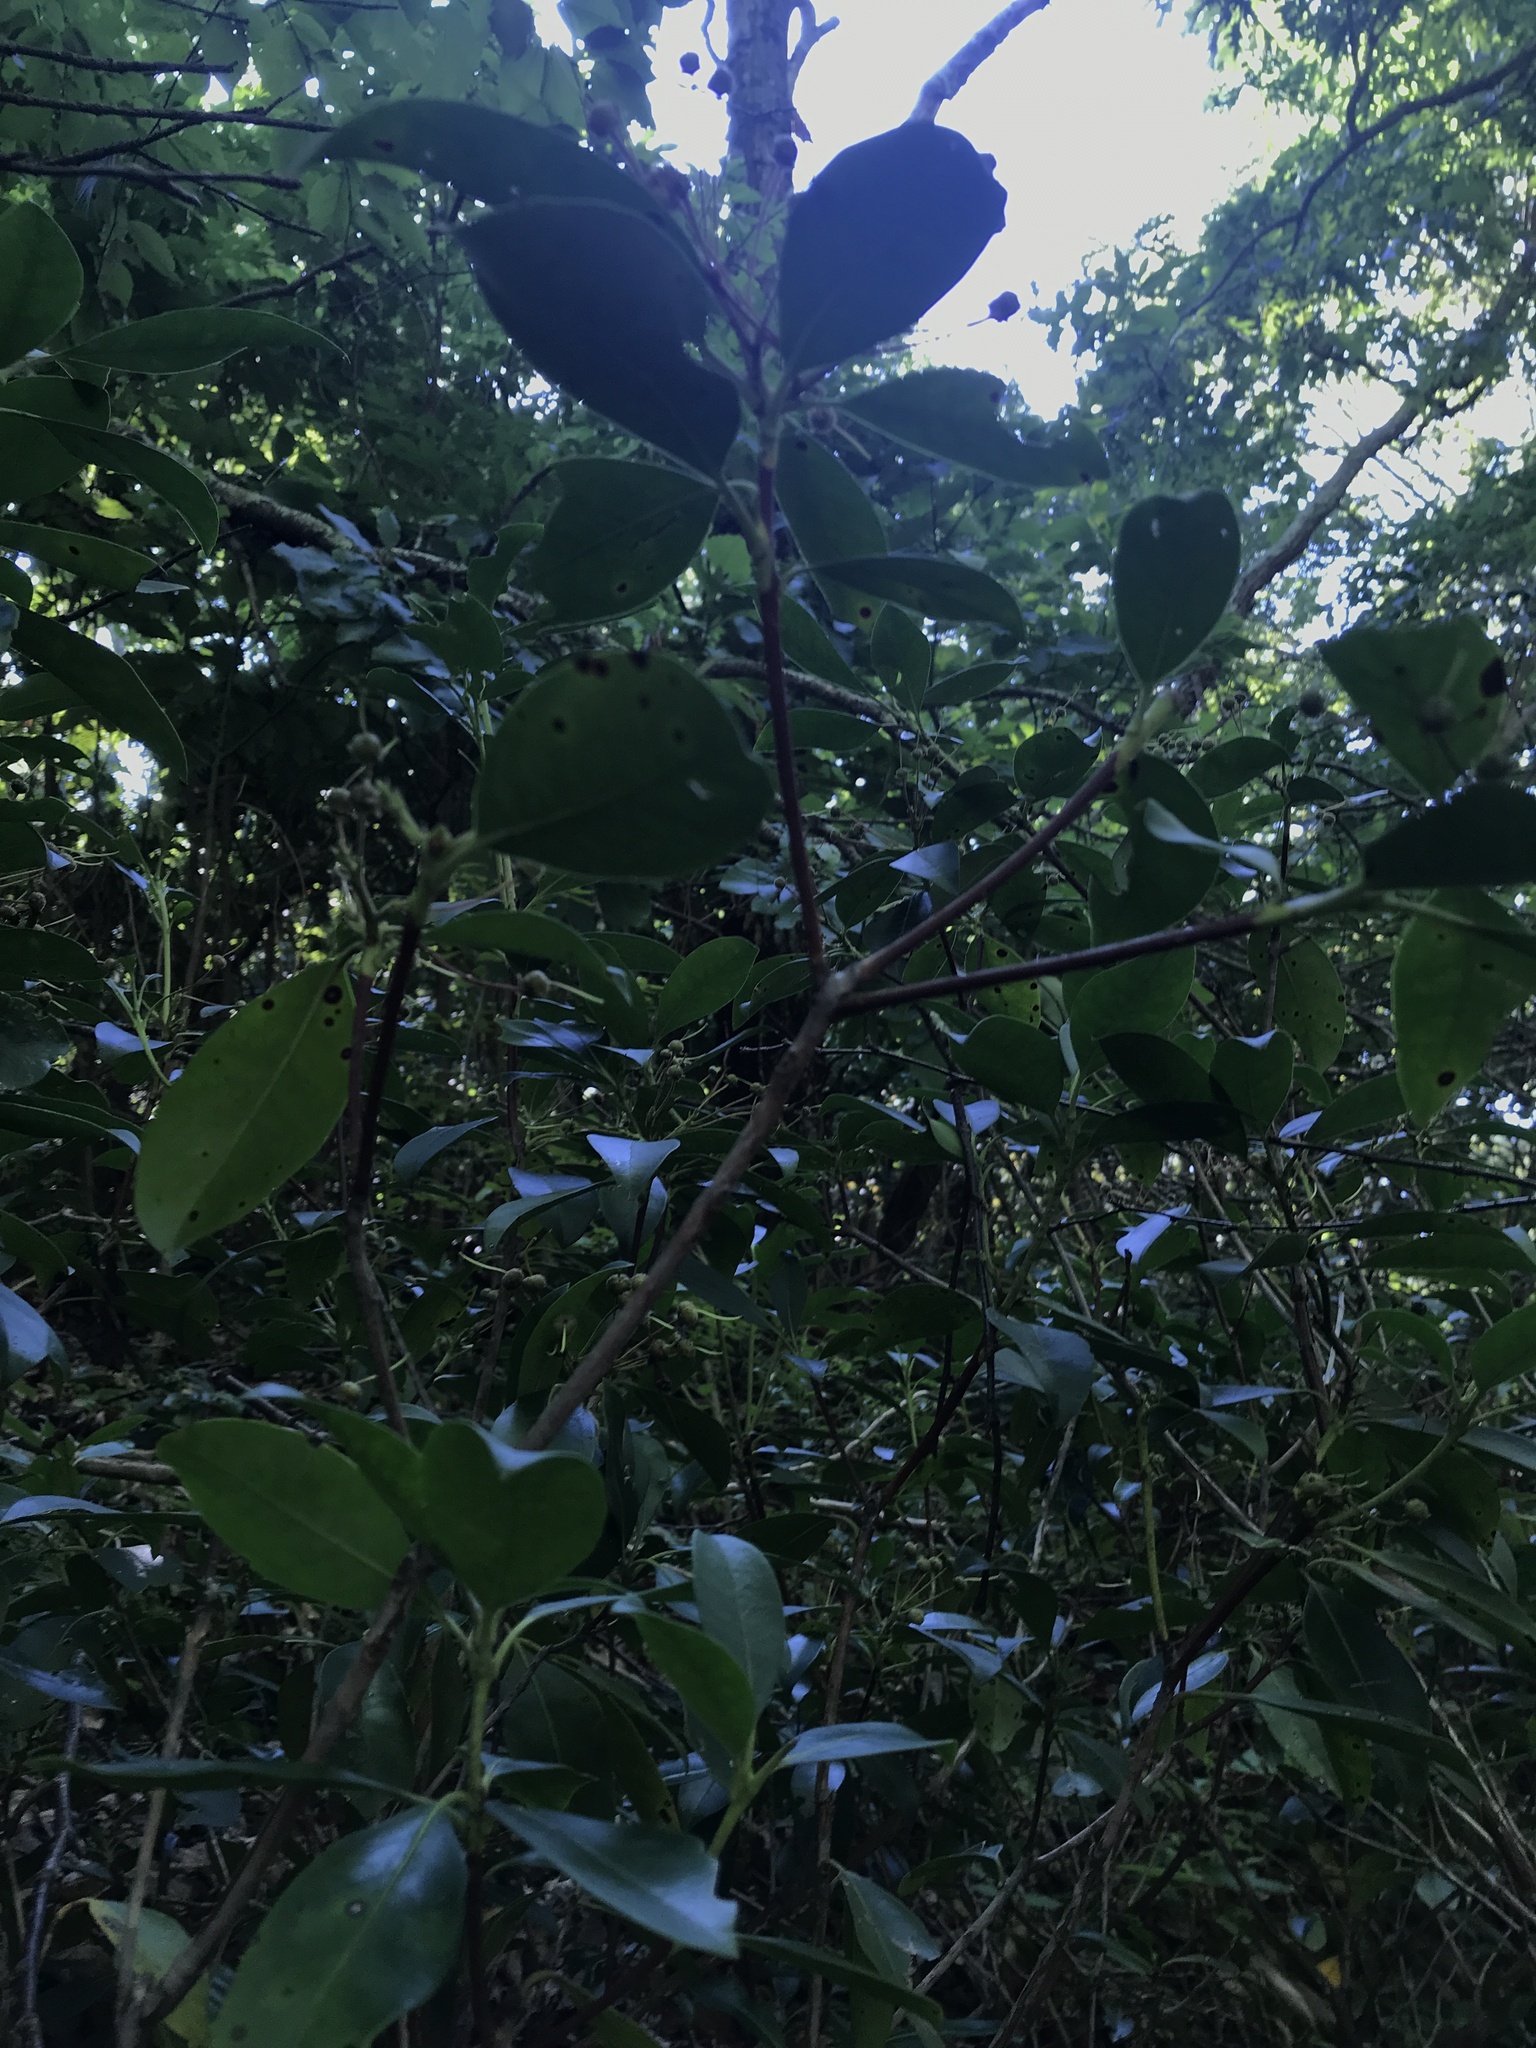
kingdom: Plantae
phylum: Tracheophyta
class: Magnoliopsida
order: Ericales
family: Ericaceae
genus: Kalmia
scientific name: Kalmia latifolia
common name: Mountain-laurel
